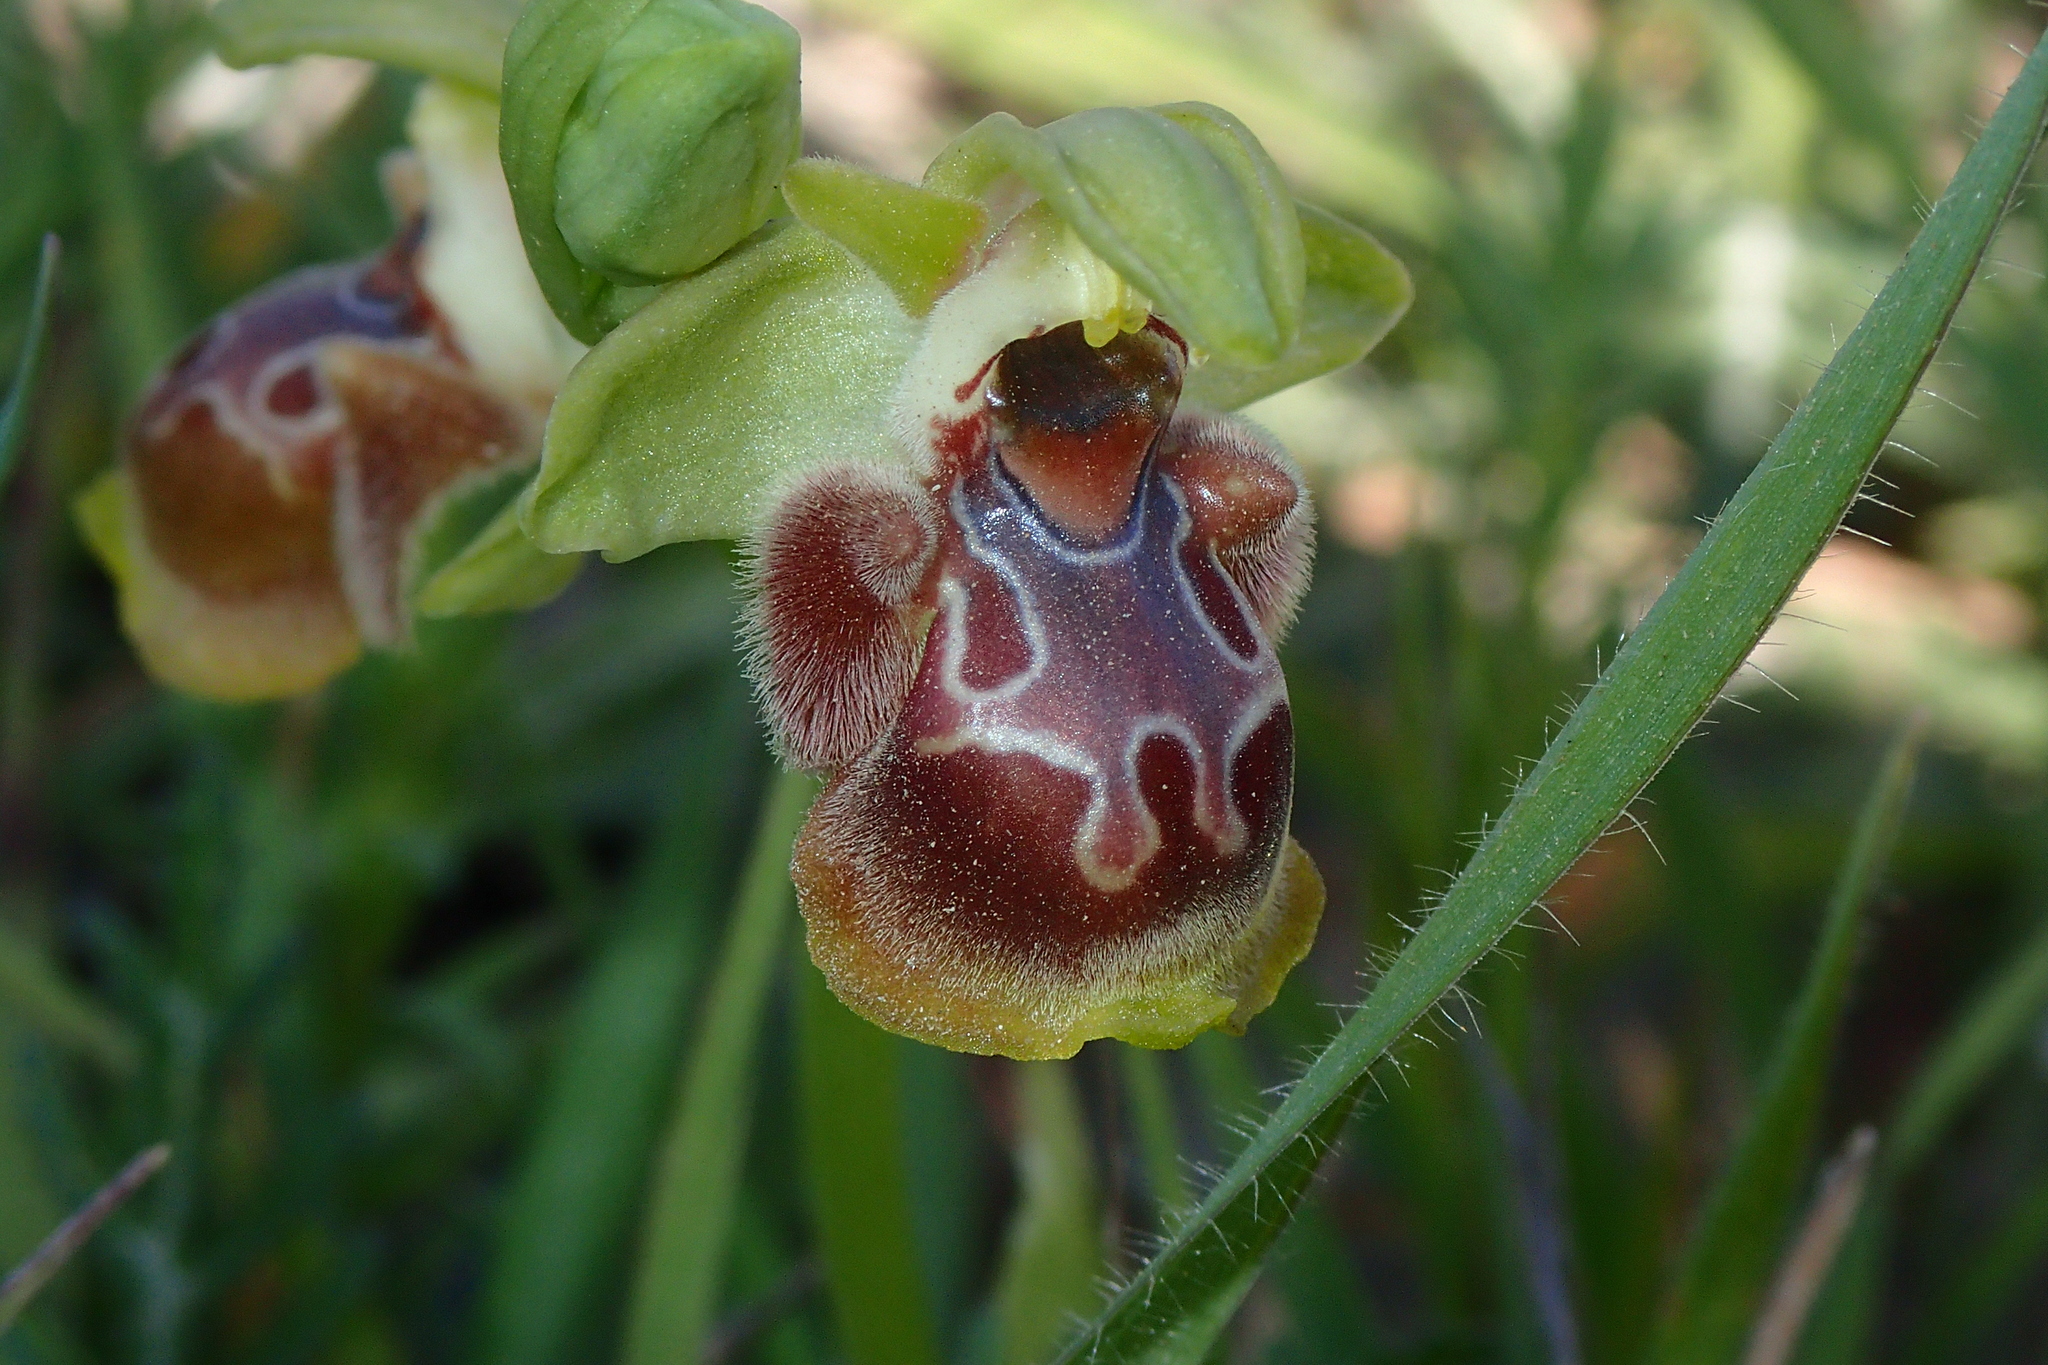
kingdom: Plantae
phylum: Tracheophyta
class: Liliopsida
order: Asparagales
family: Orchidaceae
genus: Ophrys
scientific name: Ophrys umbilicata
